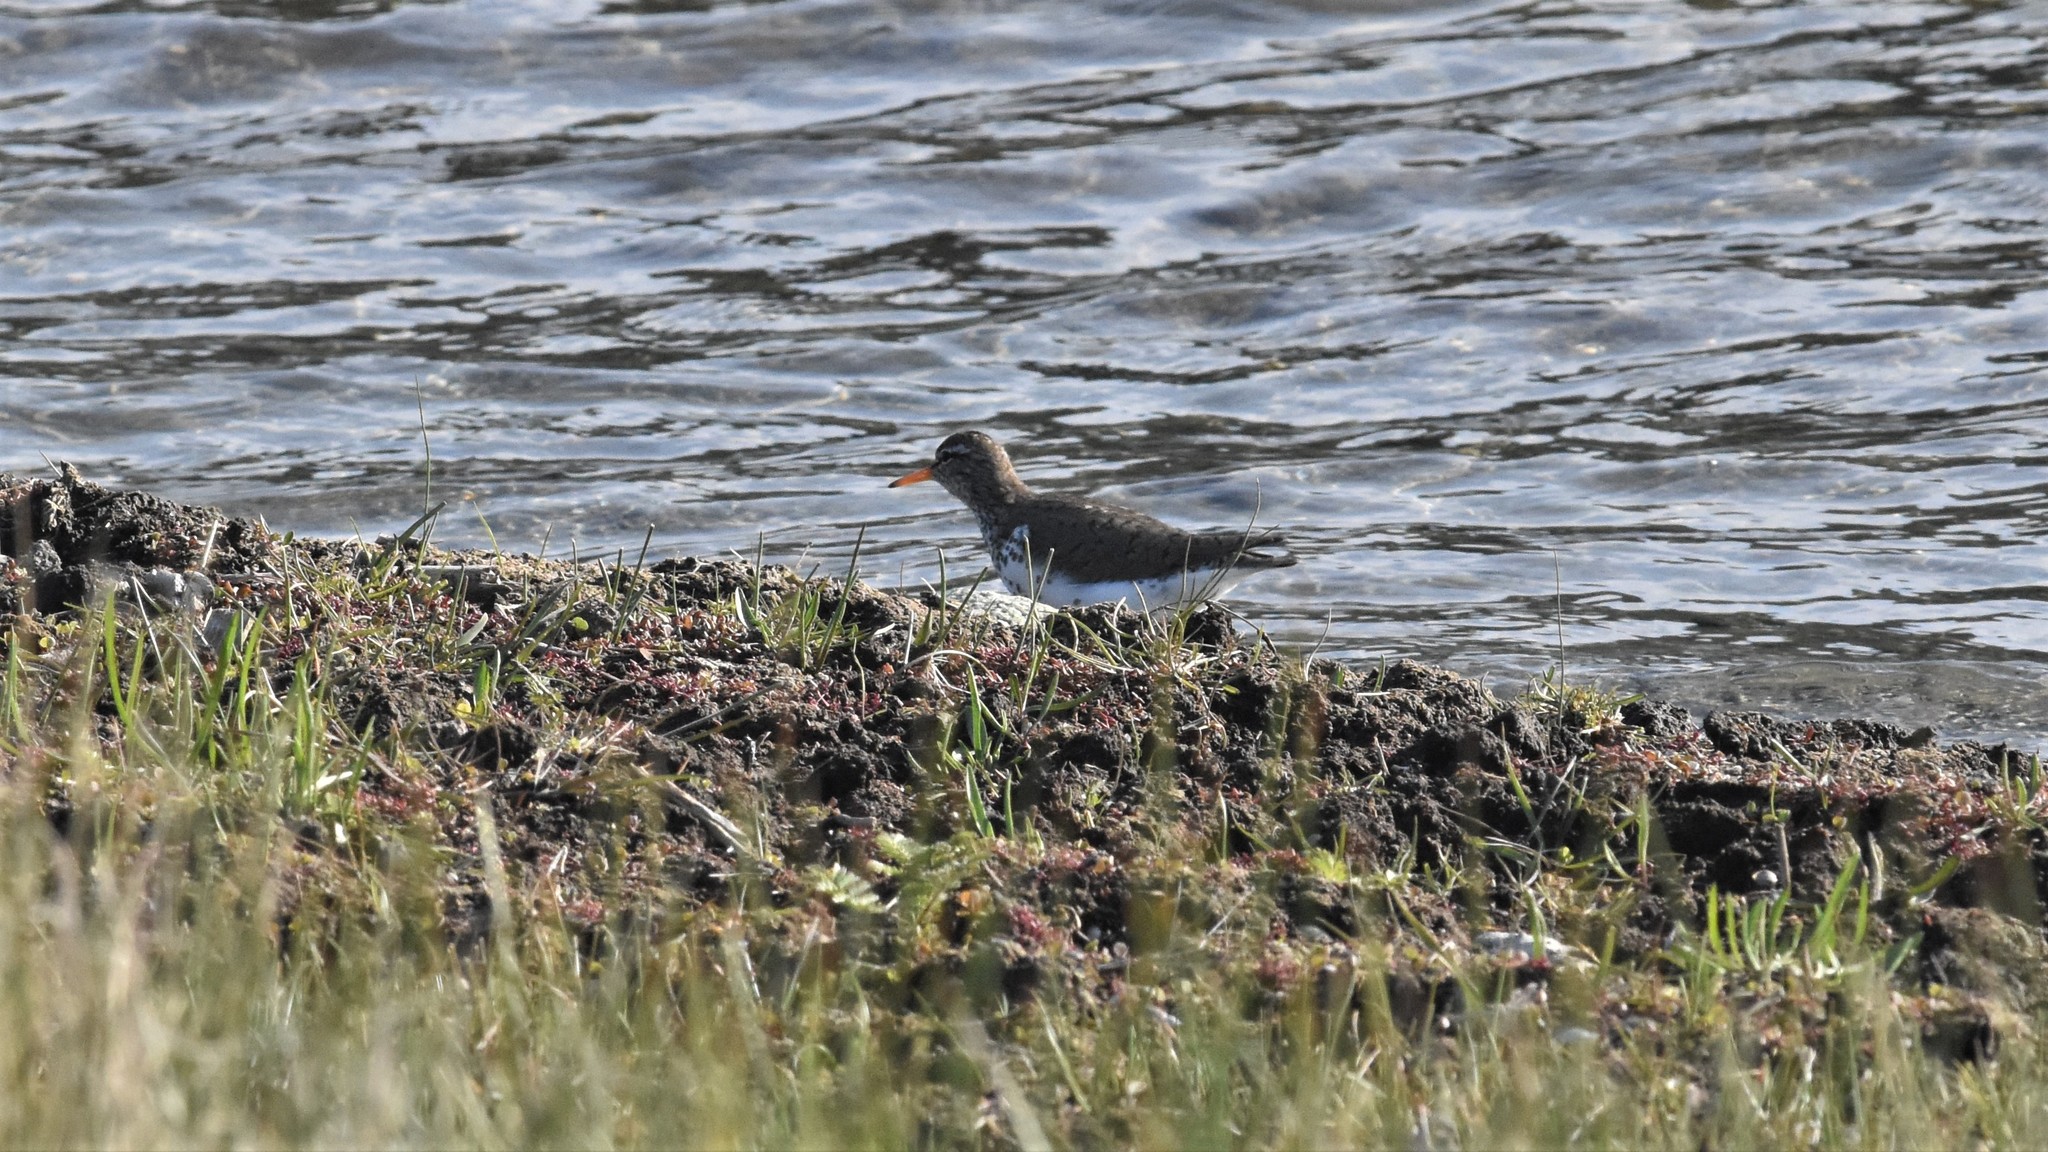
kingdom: Animalia
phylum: Chordata
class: Aves
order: Charadriiformes
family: Scolopacidae
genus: Actitis
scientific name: Actitis macularius
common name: Spotted sandpiper
